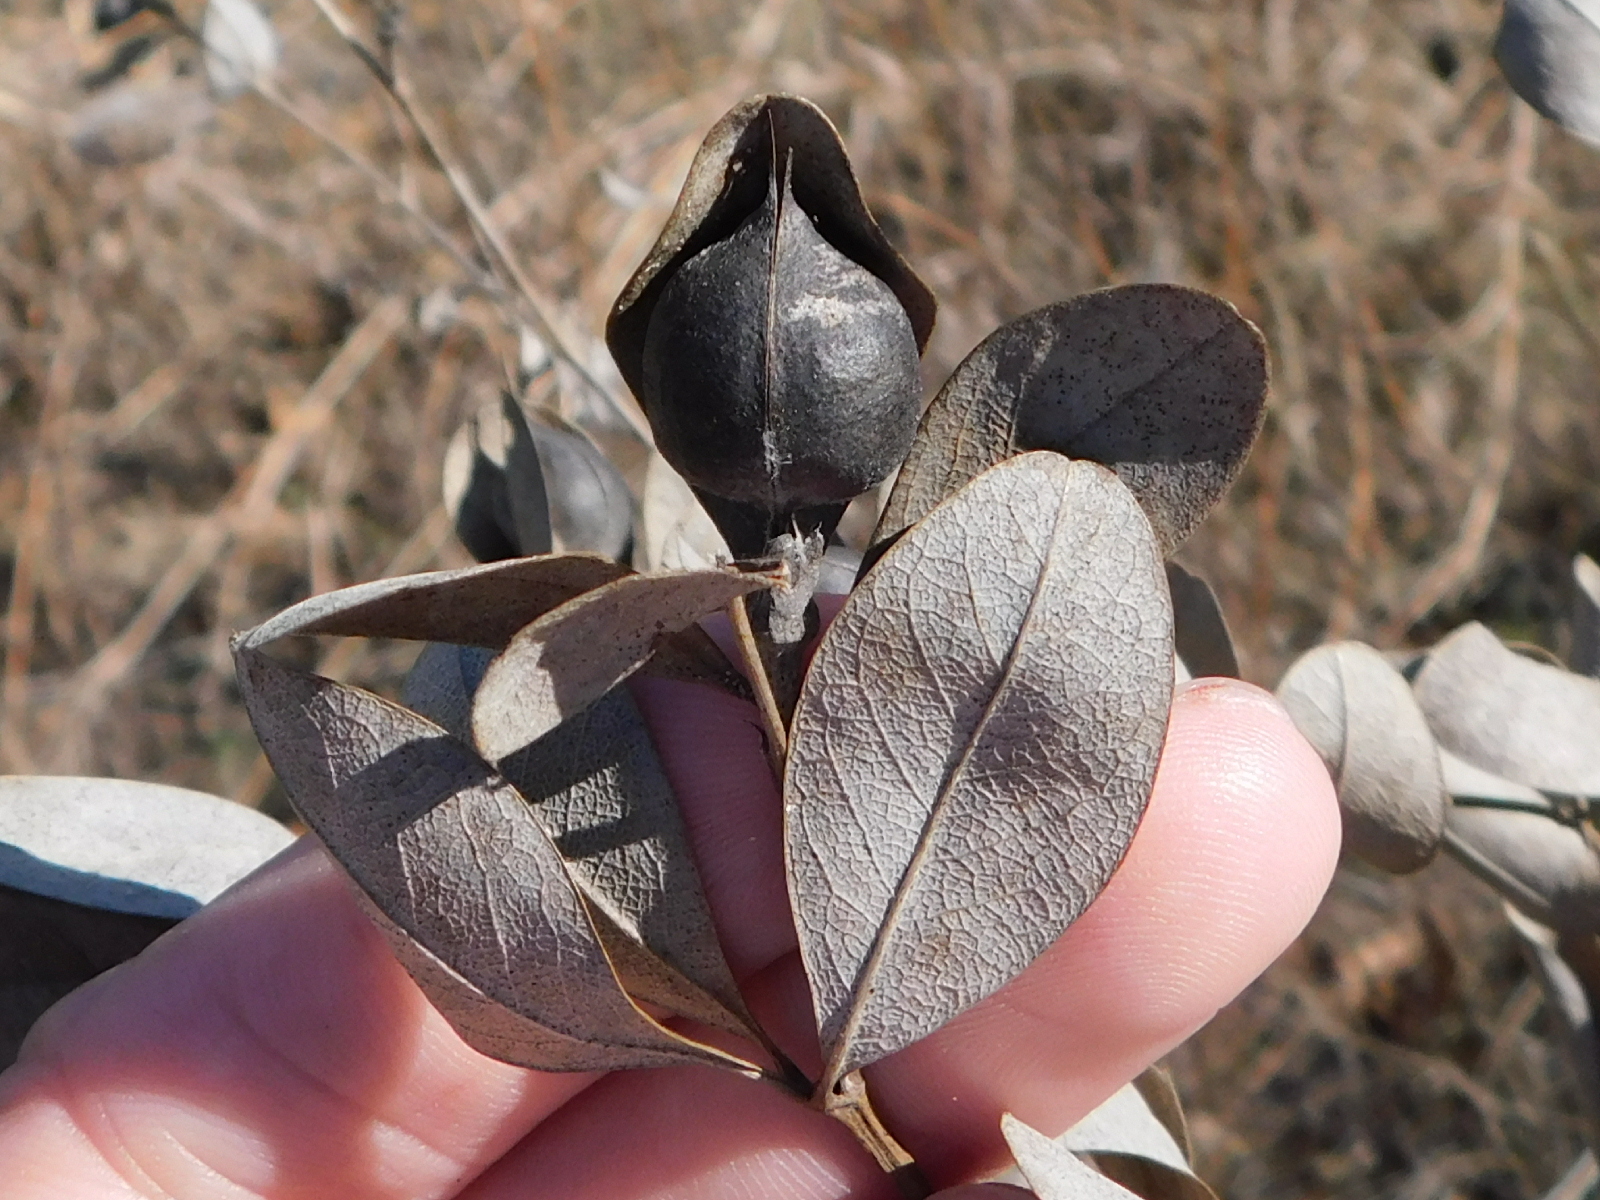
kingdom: Plantae
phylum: Tracheophyta
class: Magnoliopsida
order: Fabales
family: Fabaceae
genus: Baptisia
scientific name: Baptisia nuttalliana
